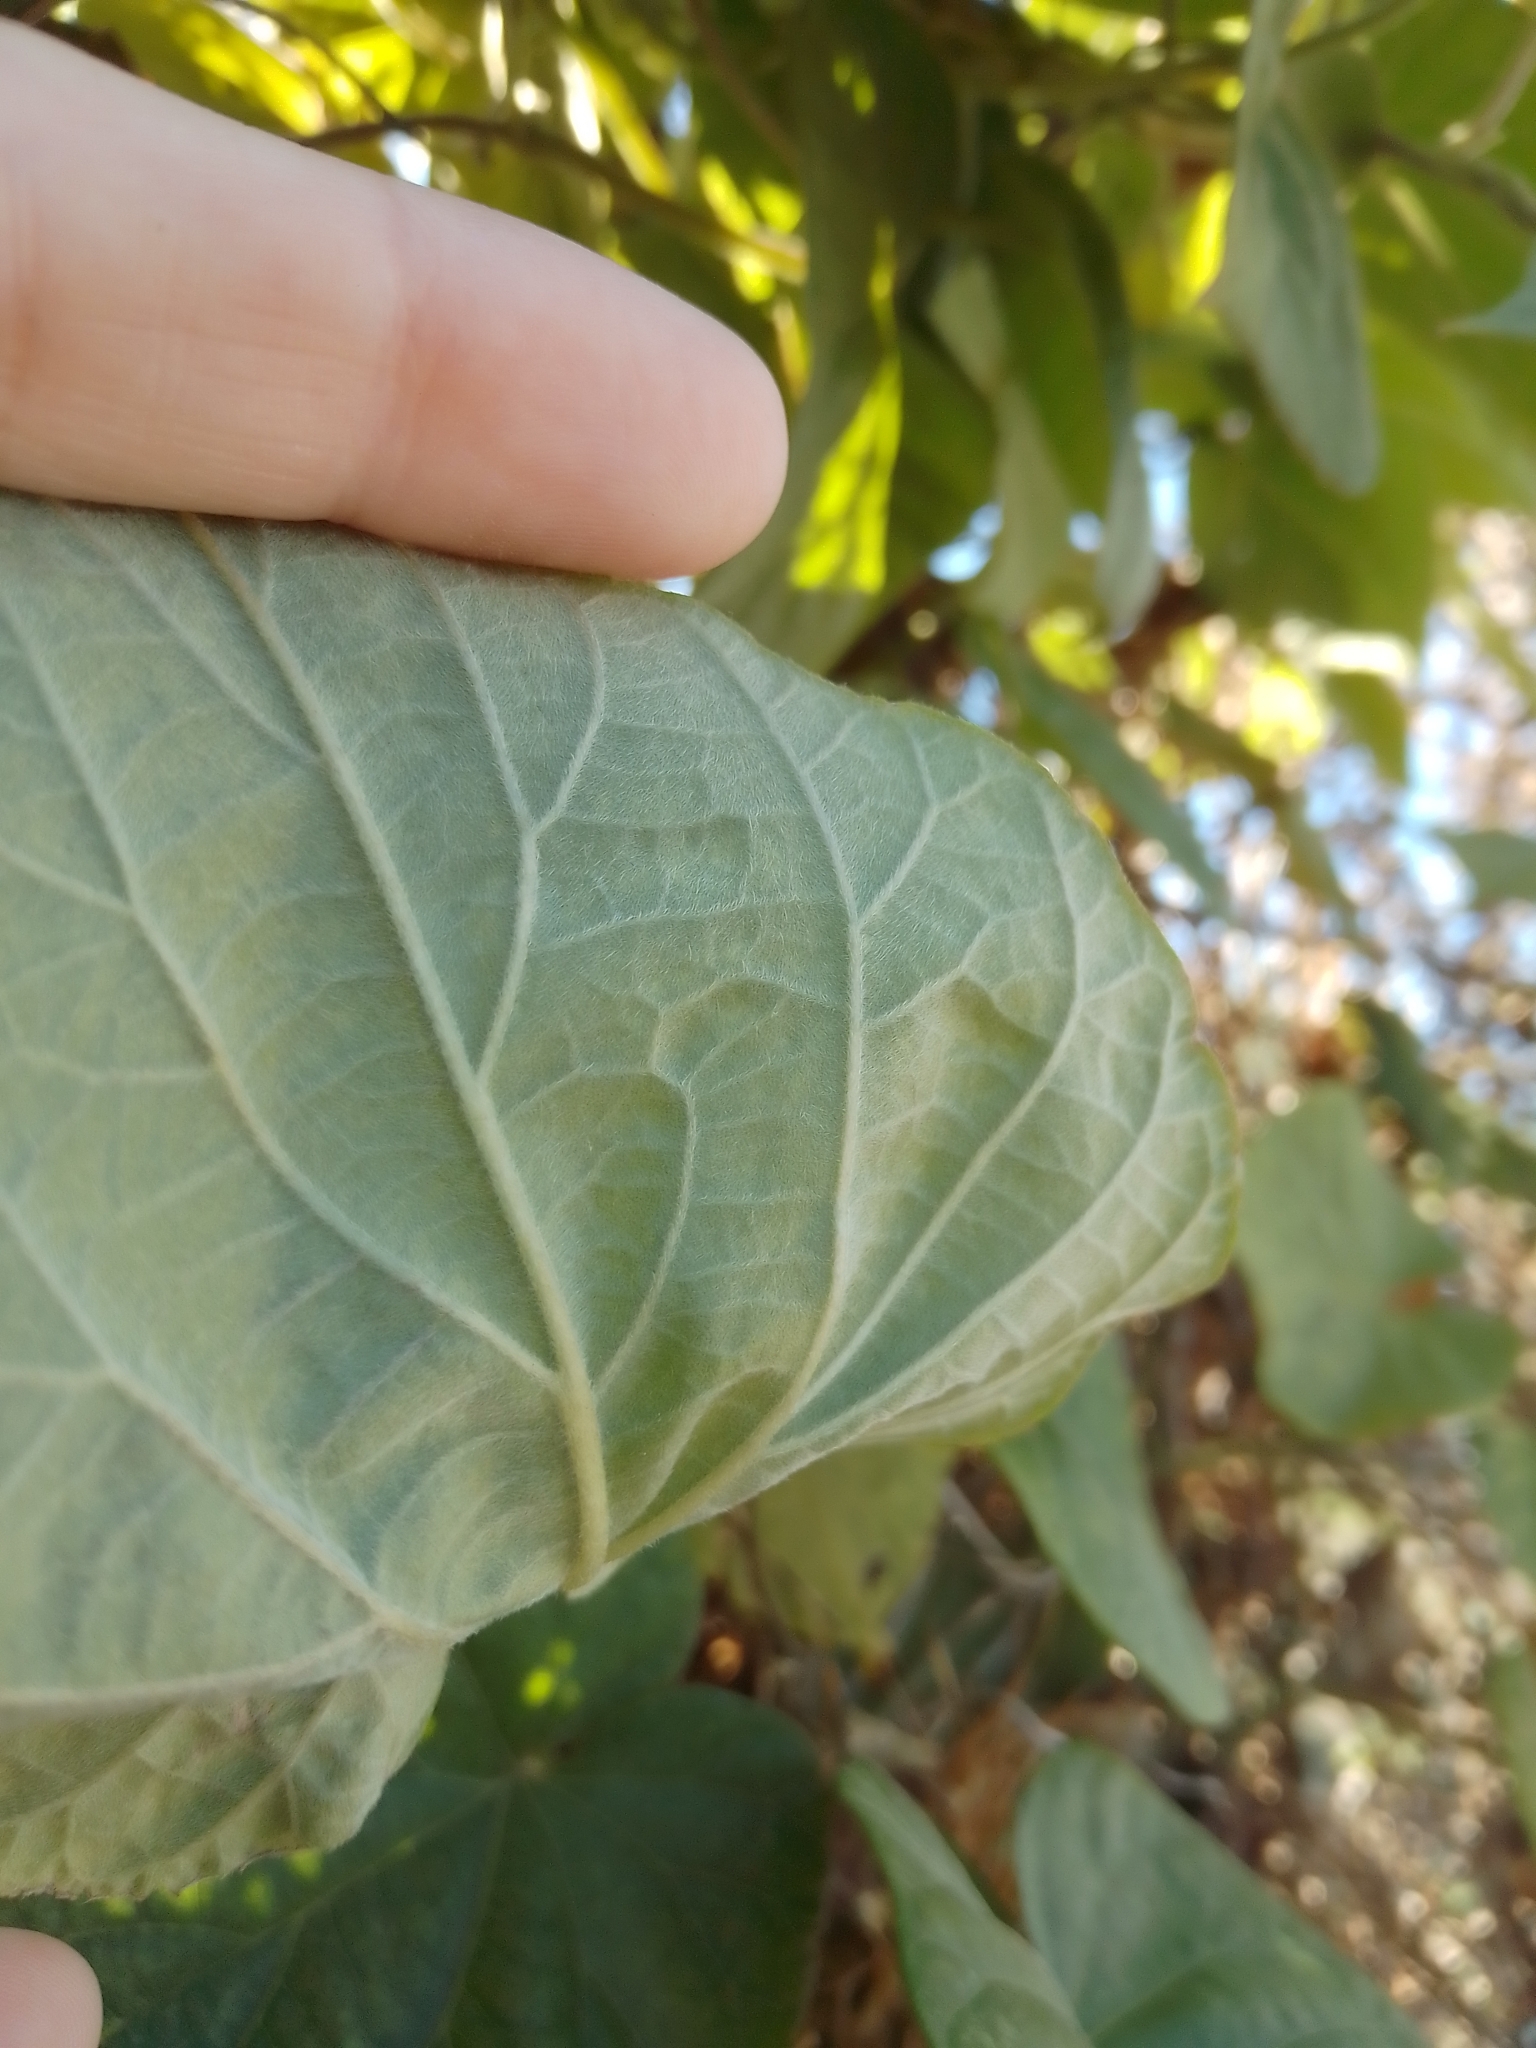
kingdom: Plantae
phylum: Tracheophyta
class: Magnoliopsida
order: Solanales
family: Convolvulaceae
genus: Ipomoea
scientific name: Ipomoea indica
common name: Blue dawnflower
